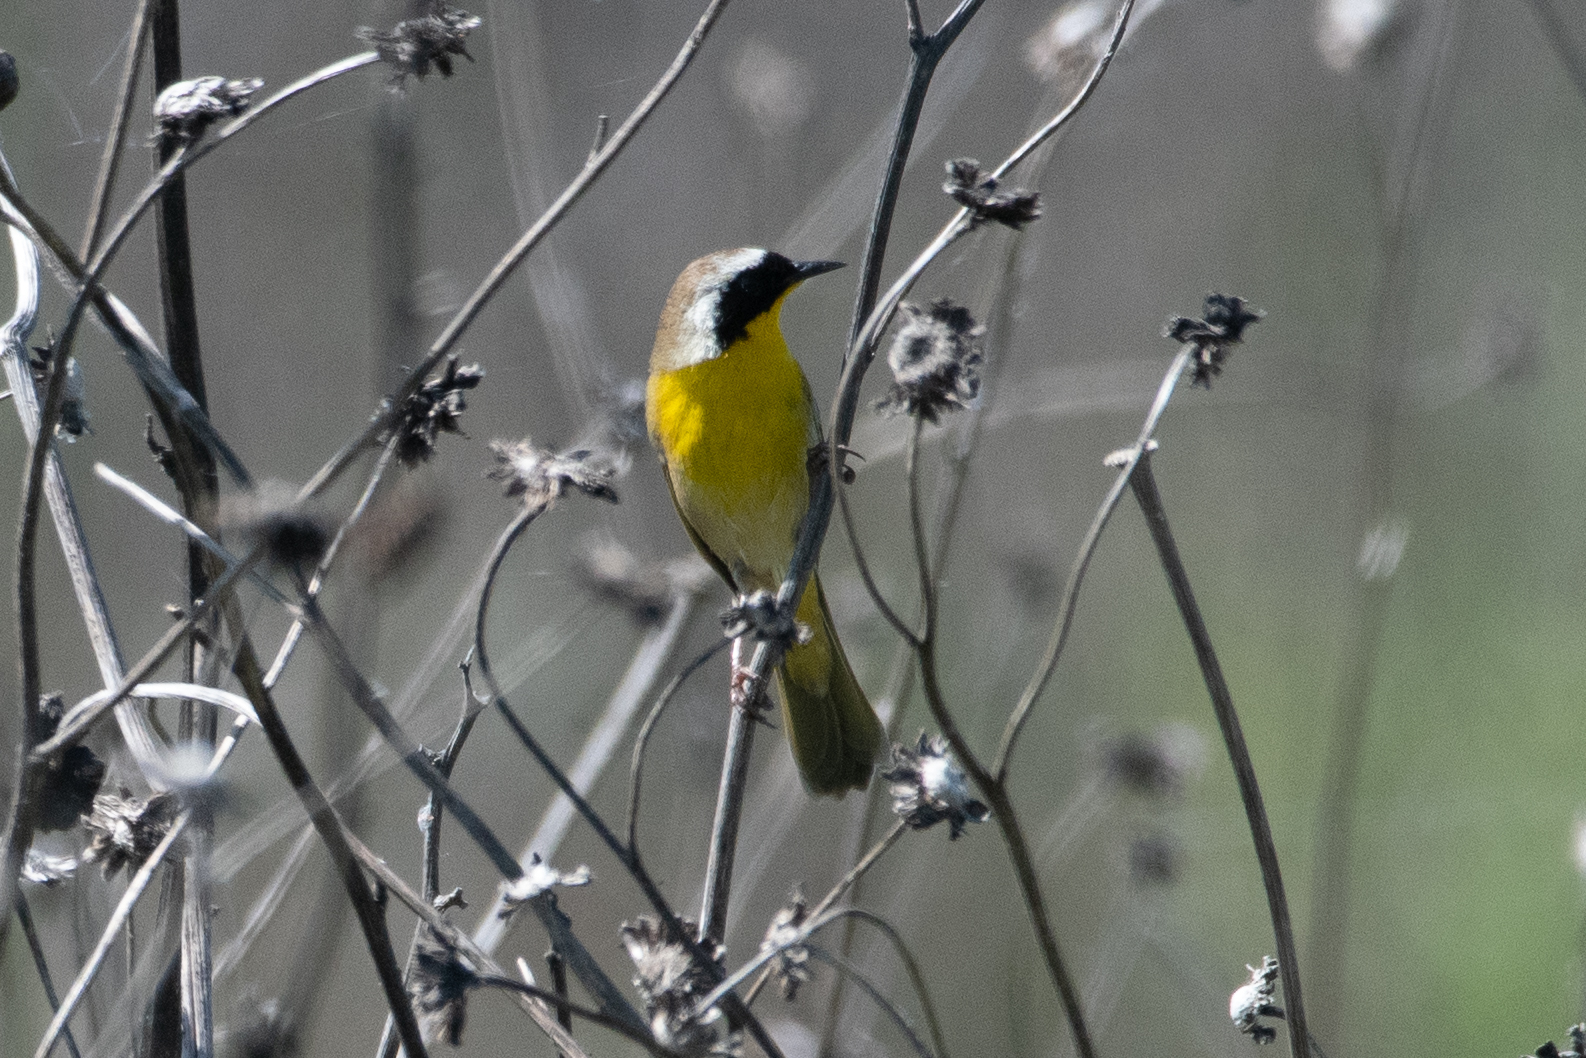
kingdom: Animalia
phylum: Chordata
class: Aves
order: Passeriformes
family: Parulidae
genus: Geothlypis
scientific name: Geothlypis trichas
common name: Common yellowthroat
